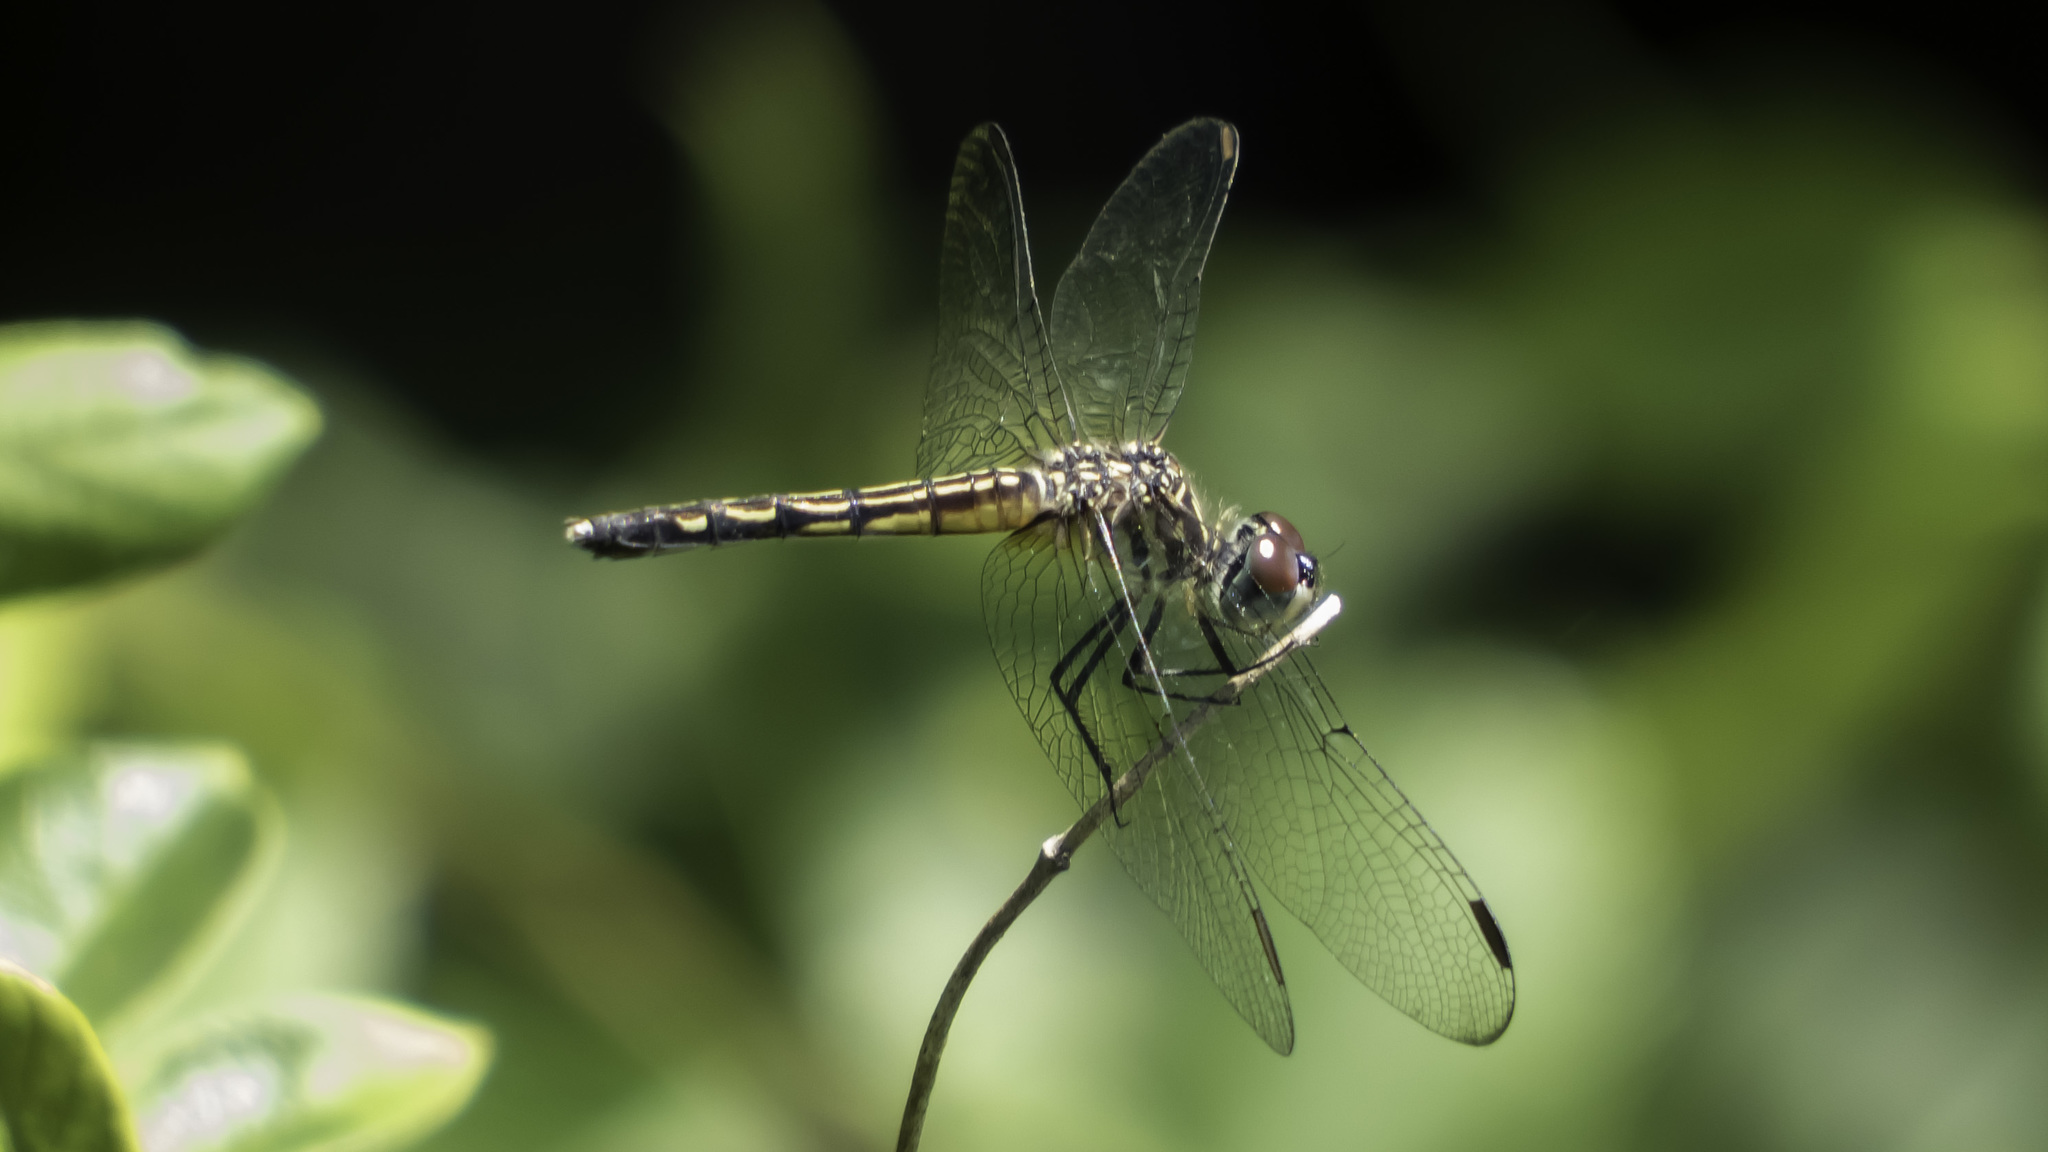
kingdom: Animalia
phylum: Arthropoda
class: Insecta
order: Odonata
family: Libellulidae
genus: Pachydiplax
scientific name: Pachydiplax longipennis
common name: Blue dasher
